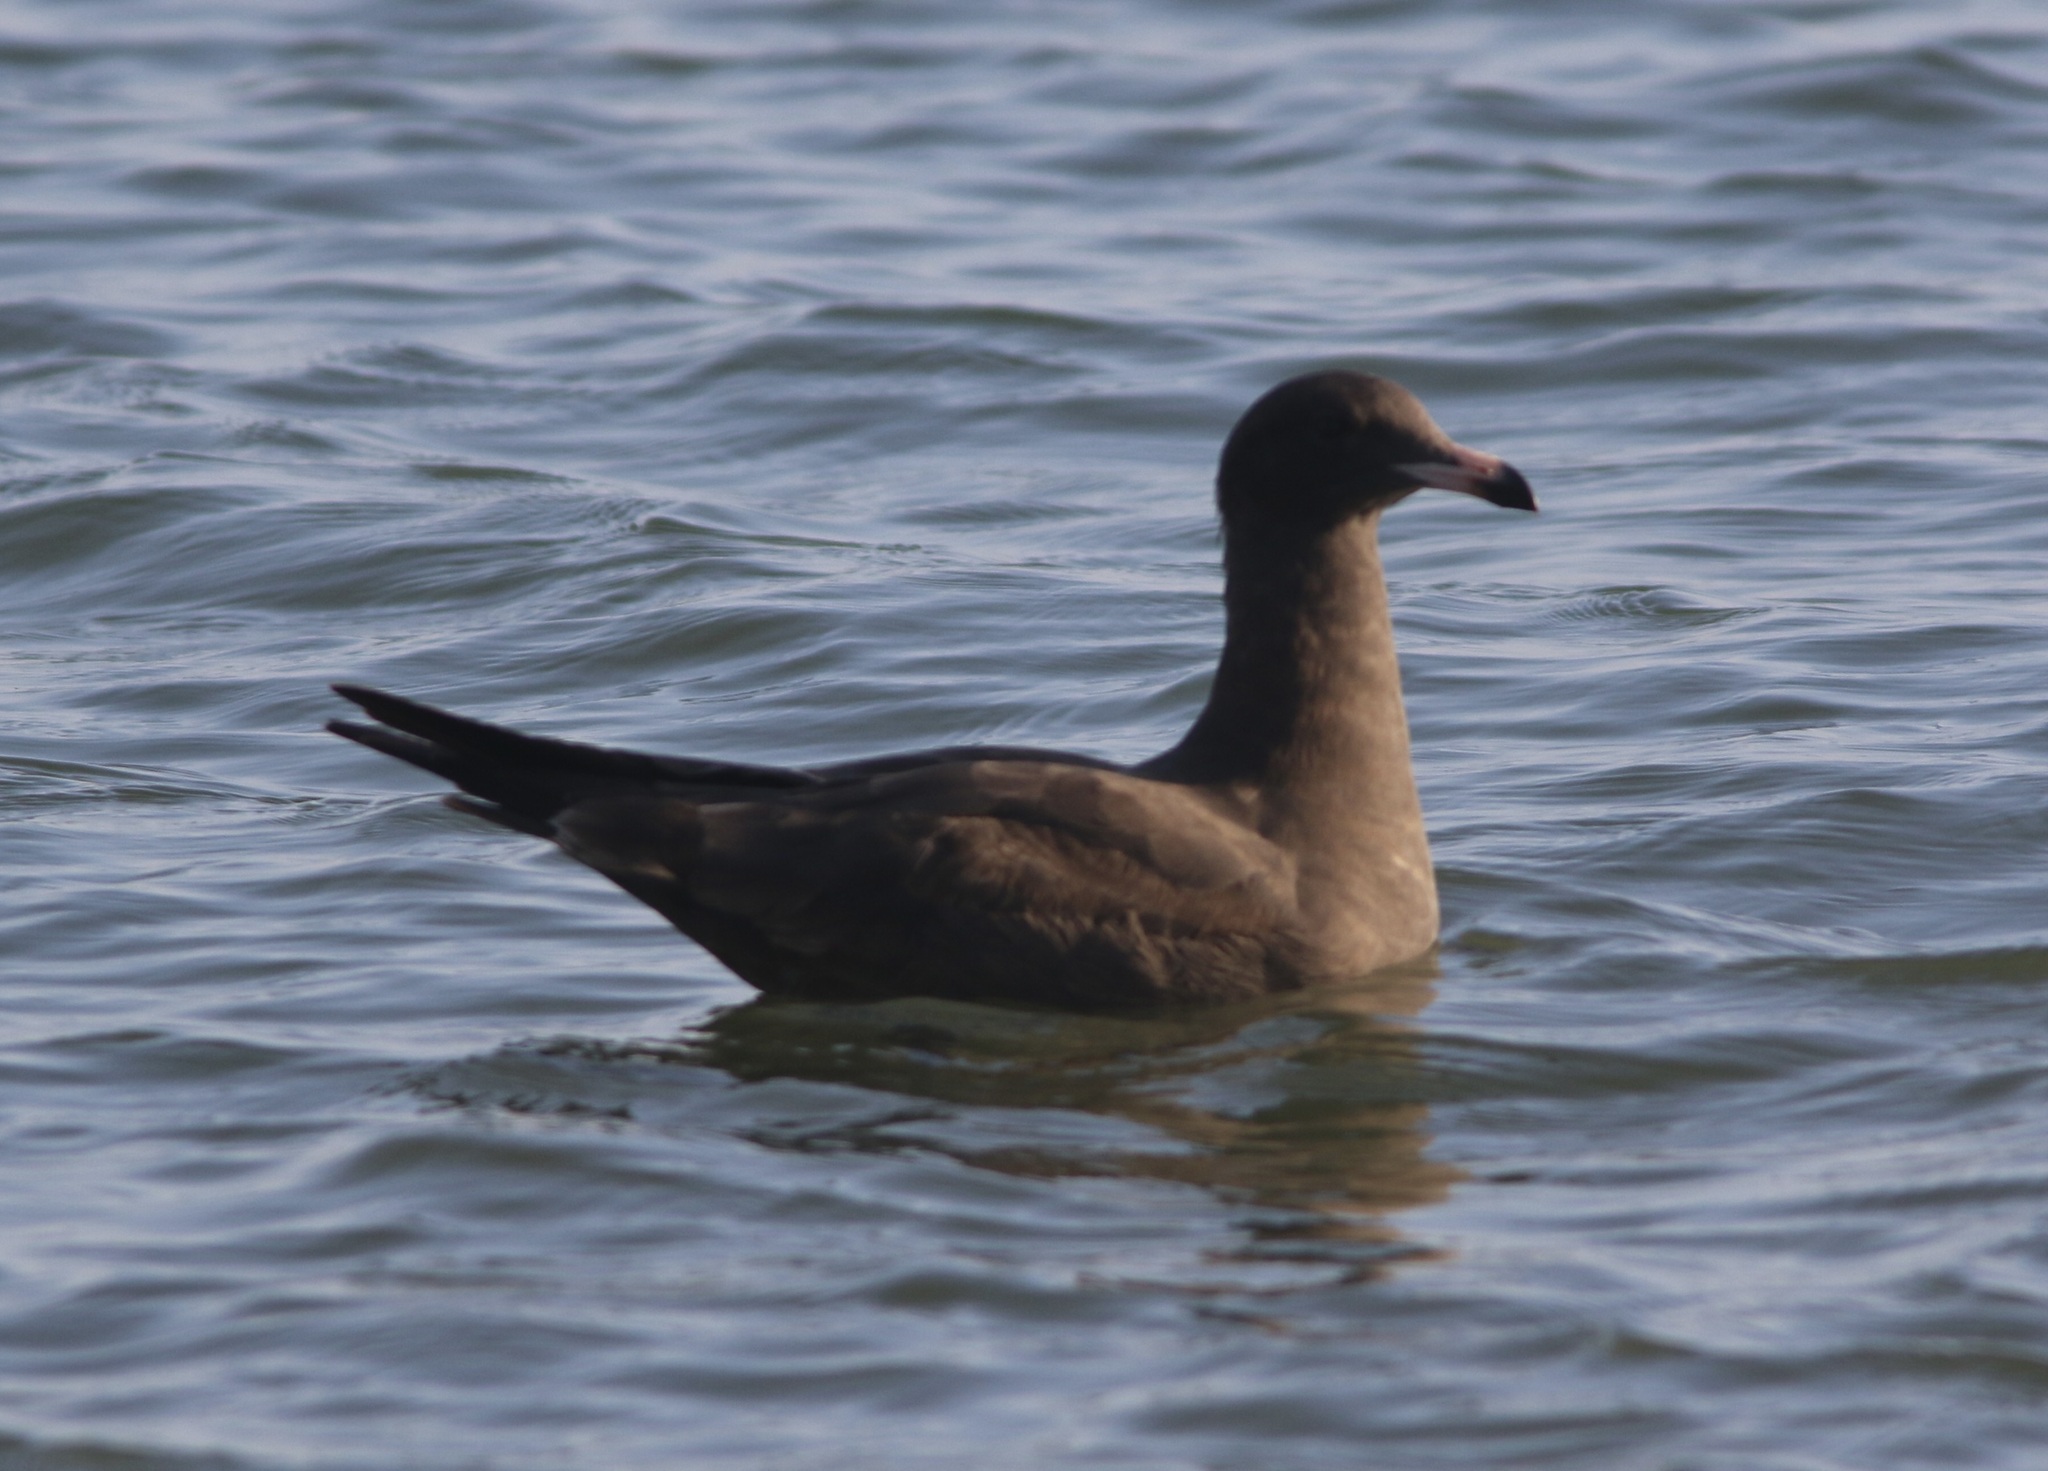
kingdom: Animalia
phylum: Chordata
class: Aves
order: Charadriiformes
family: Laridae
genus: Larus
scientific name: Larus heermanni
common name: Heermann's gull
